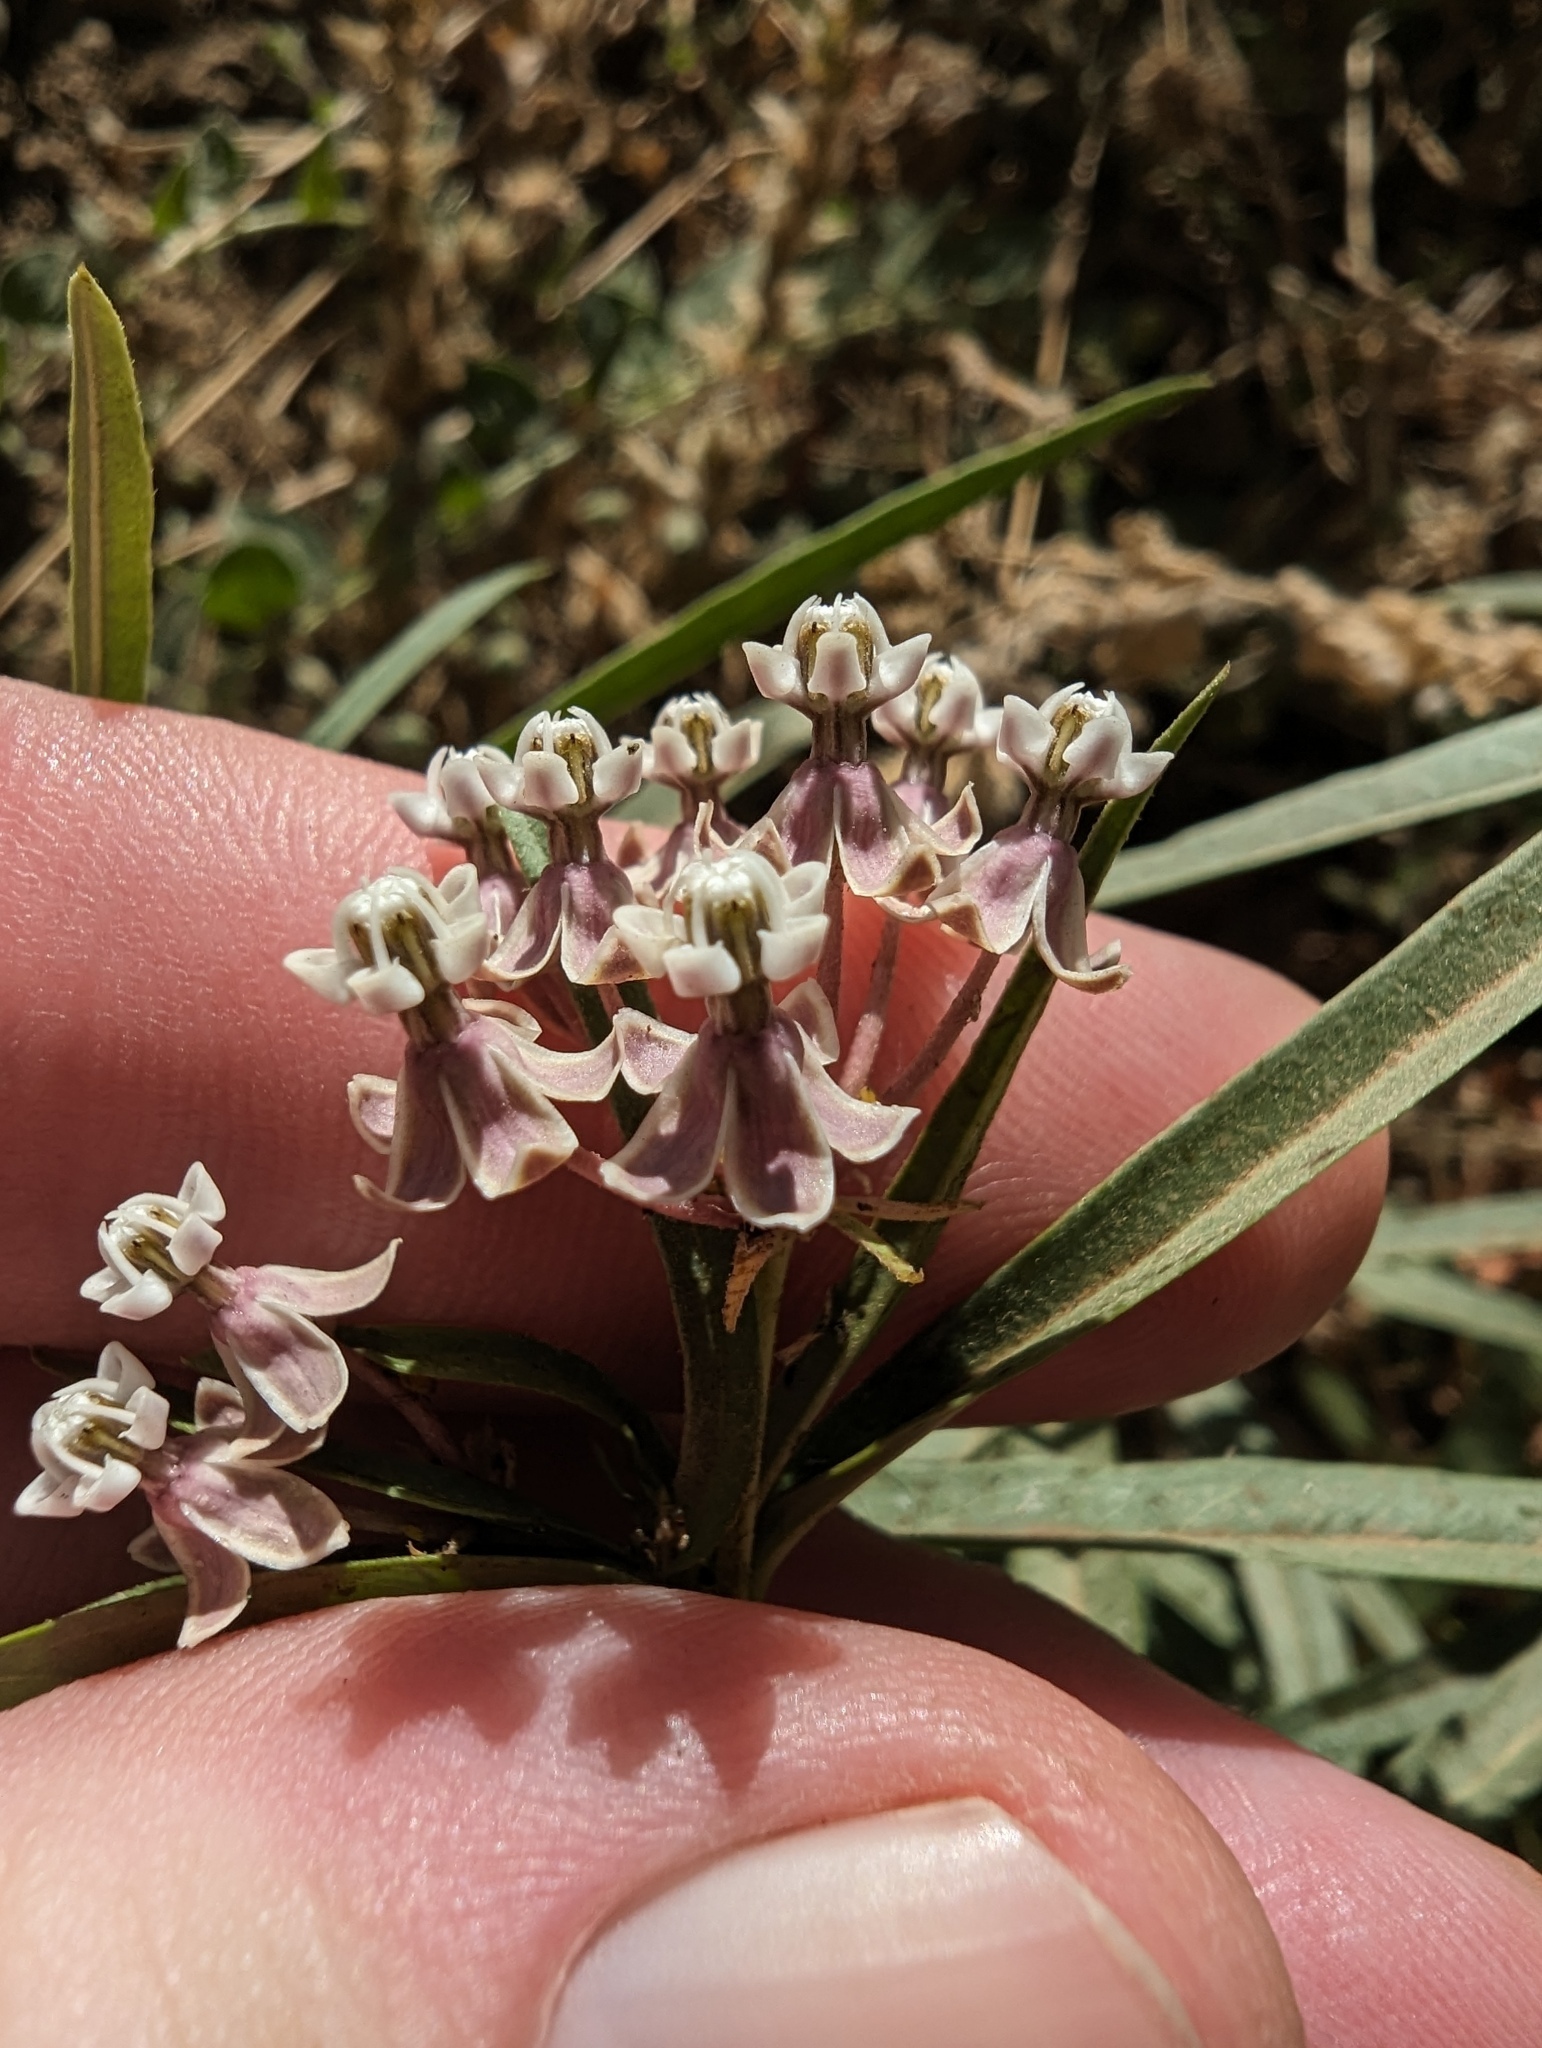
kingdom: Plantae
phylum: Tracheophyta
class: Magnoliopsida
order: Gentianales
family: Apocynaceae
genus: Asclepias
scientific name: Asclepias fascicularis
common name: Mexican milkweed
